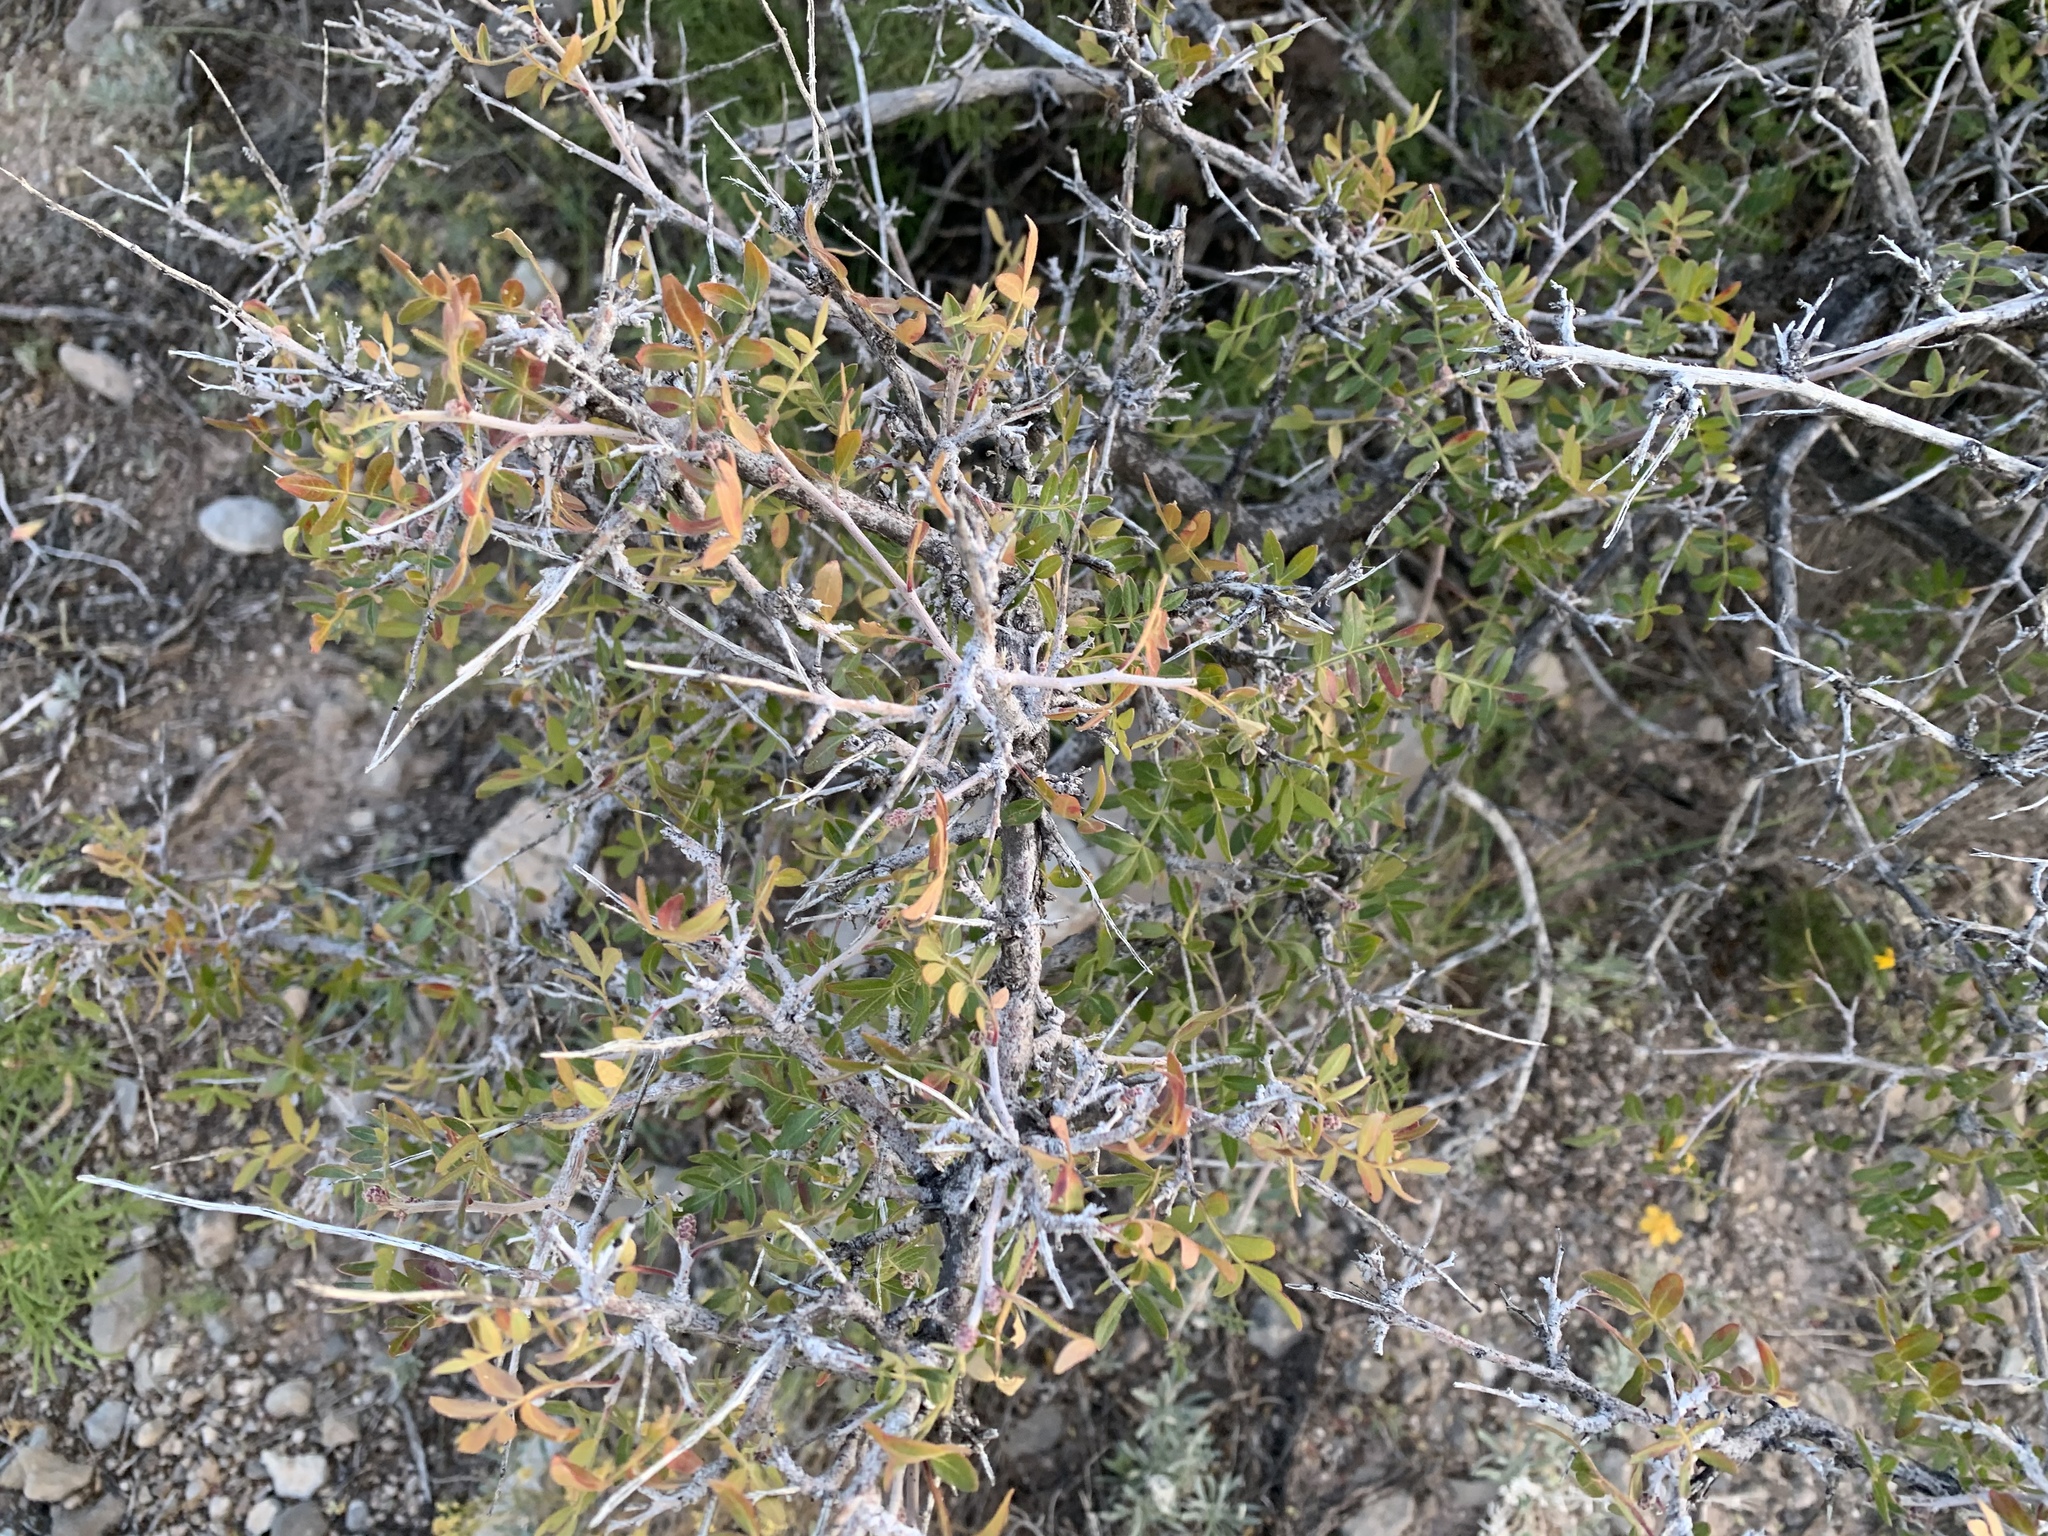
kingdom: Plantae
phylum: Tracheophyta
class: Magnoliopsida
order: Sapindales
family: Anacardiaceae
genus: Rhus
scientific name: Rhus microphylla
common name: Desert sumac
